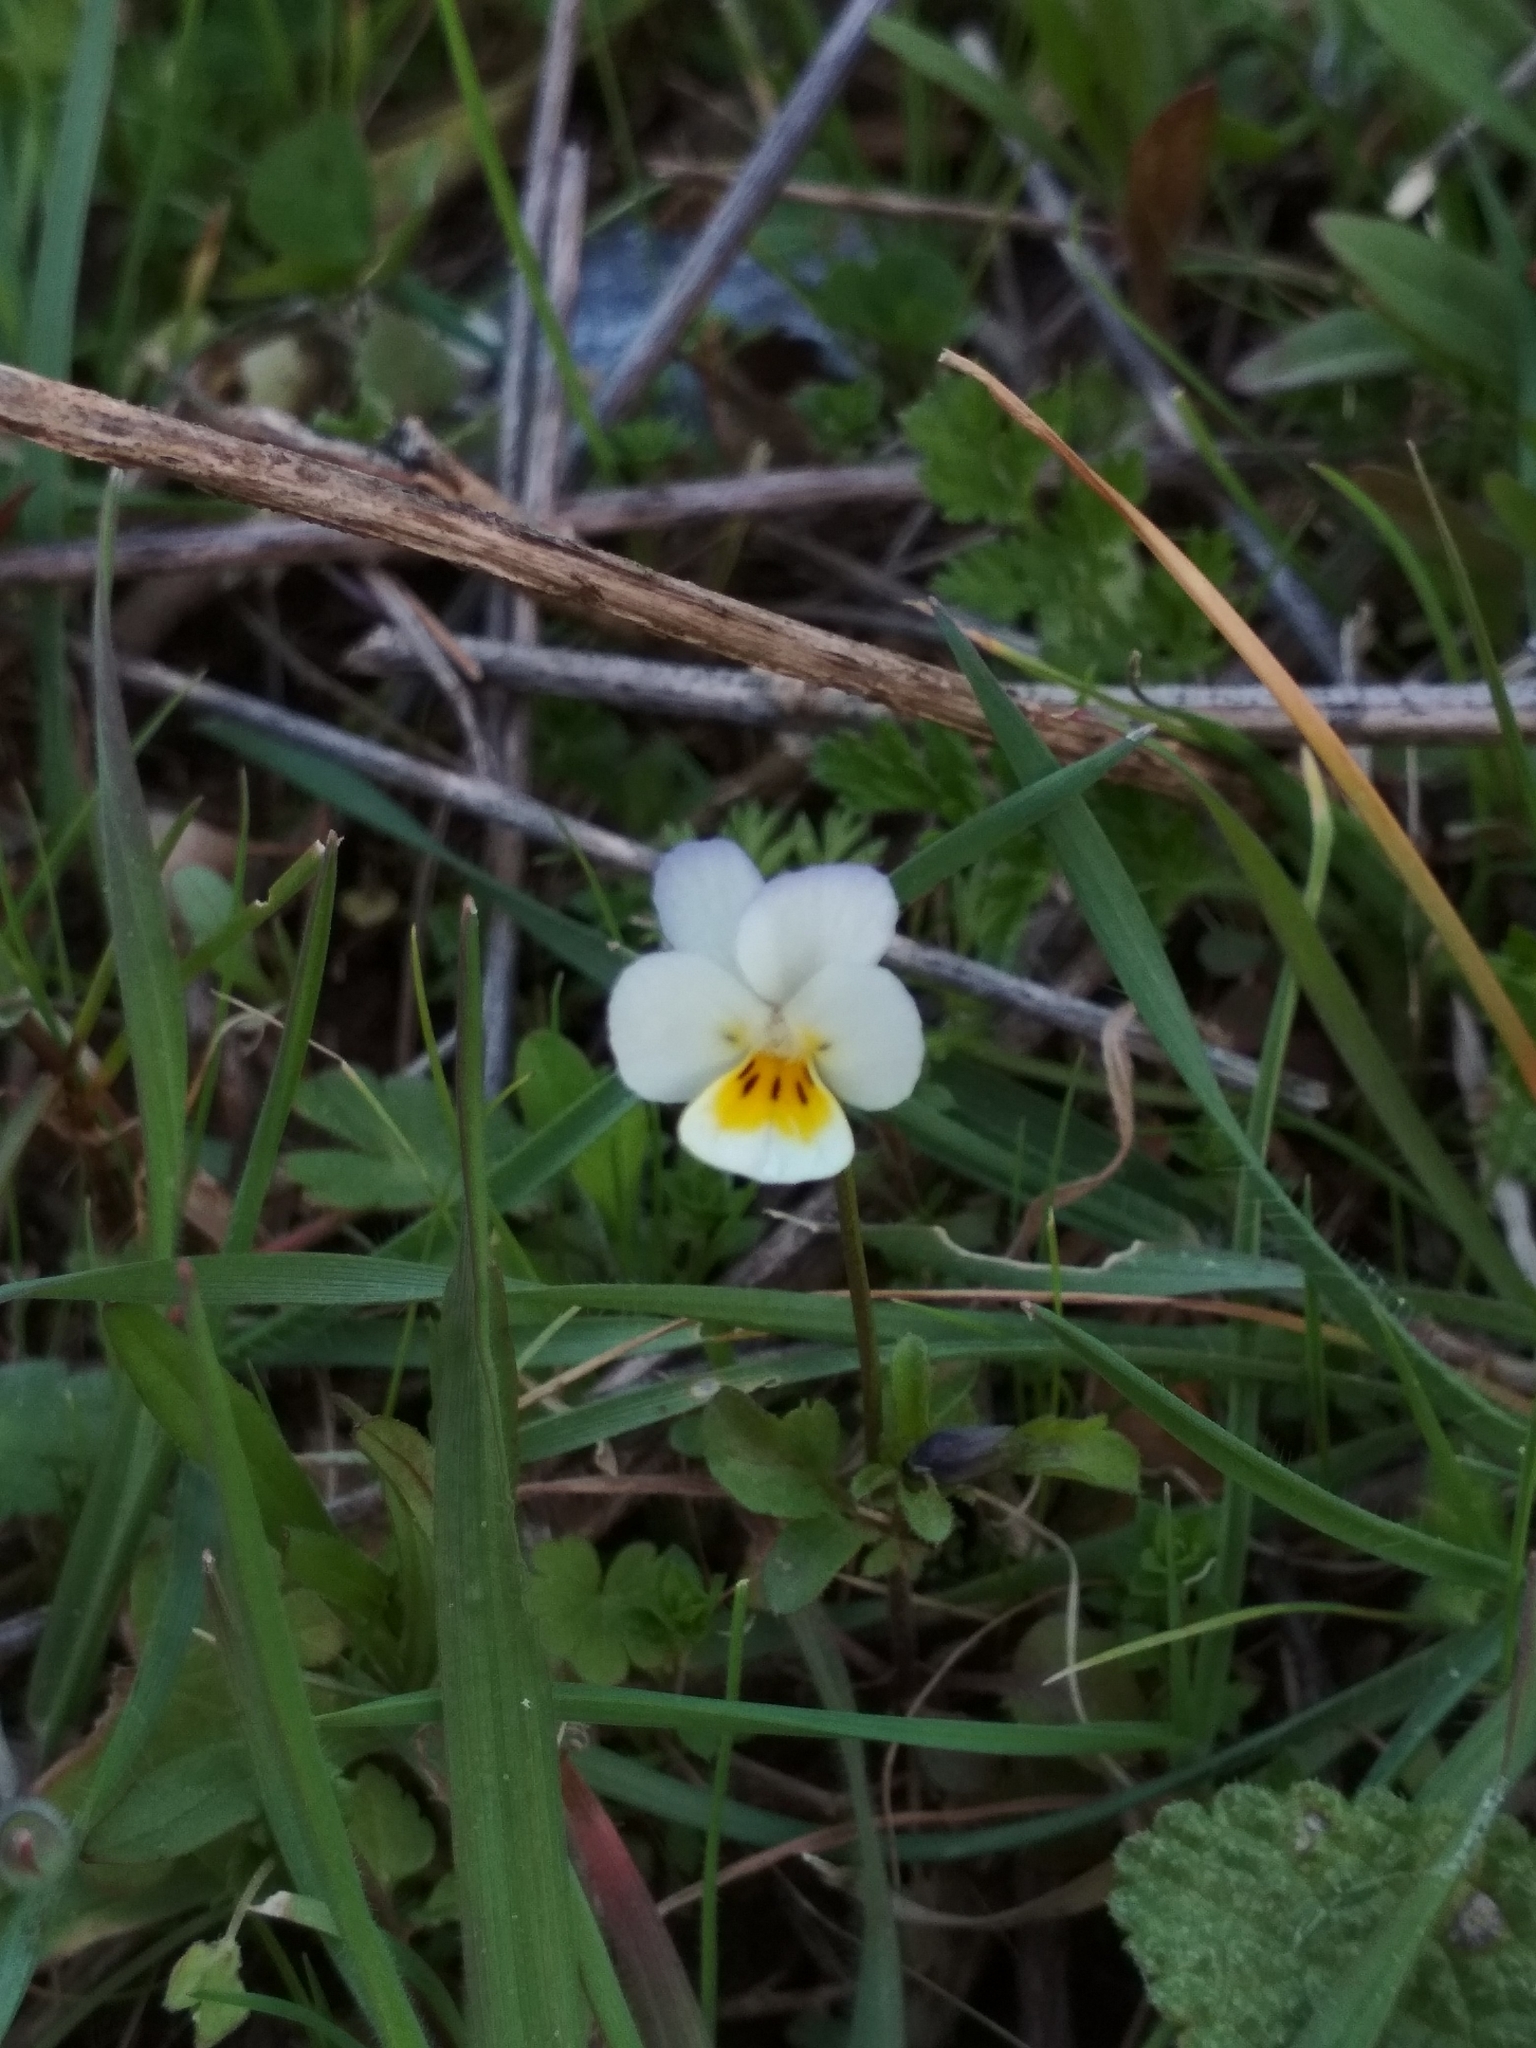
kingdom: Plantae
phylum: Tracheophyta
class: Magnoliopsida
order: Malpighiales
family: Violaceae
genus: Viola
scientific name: Viola arvensis
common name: Field pansy
